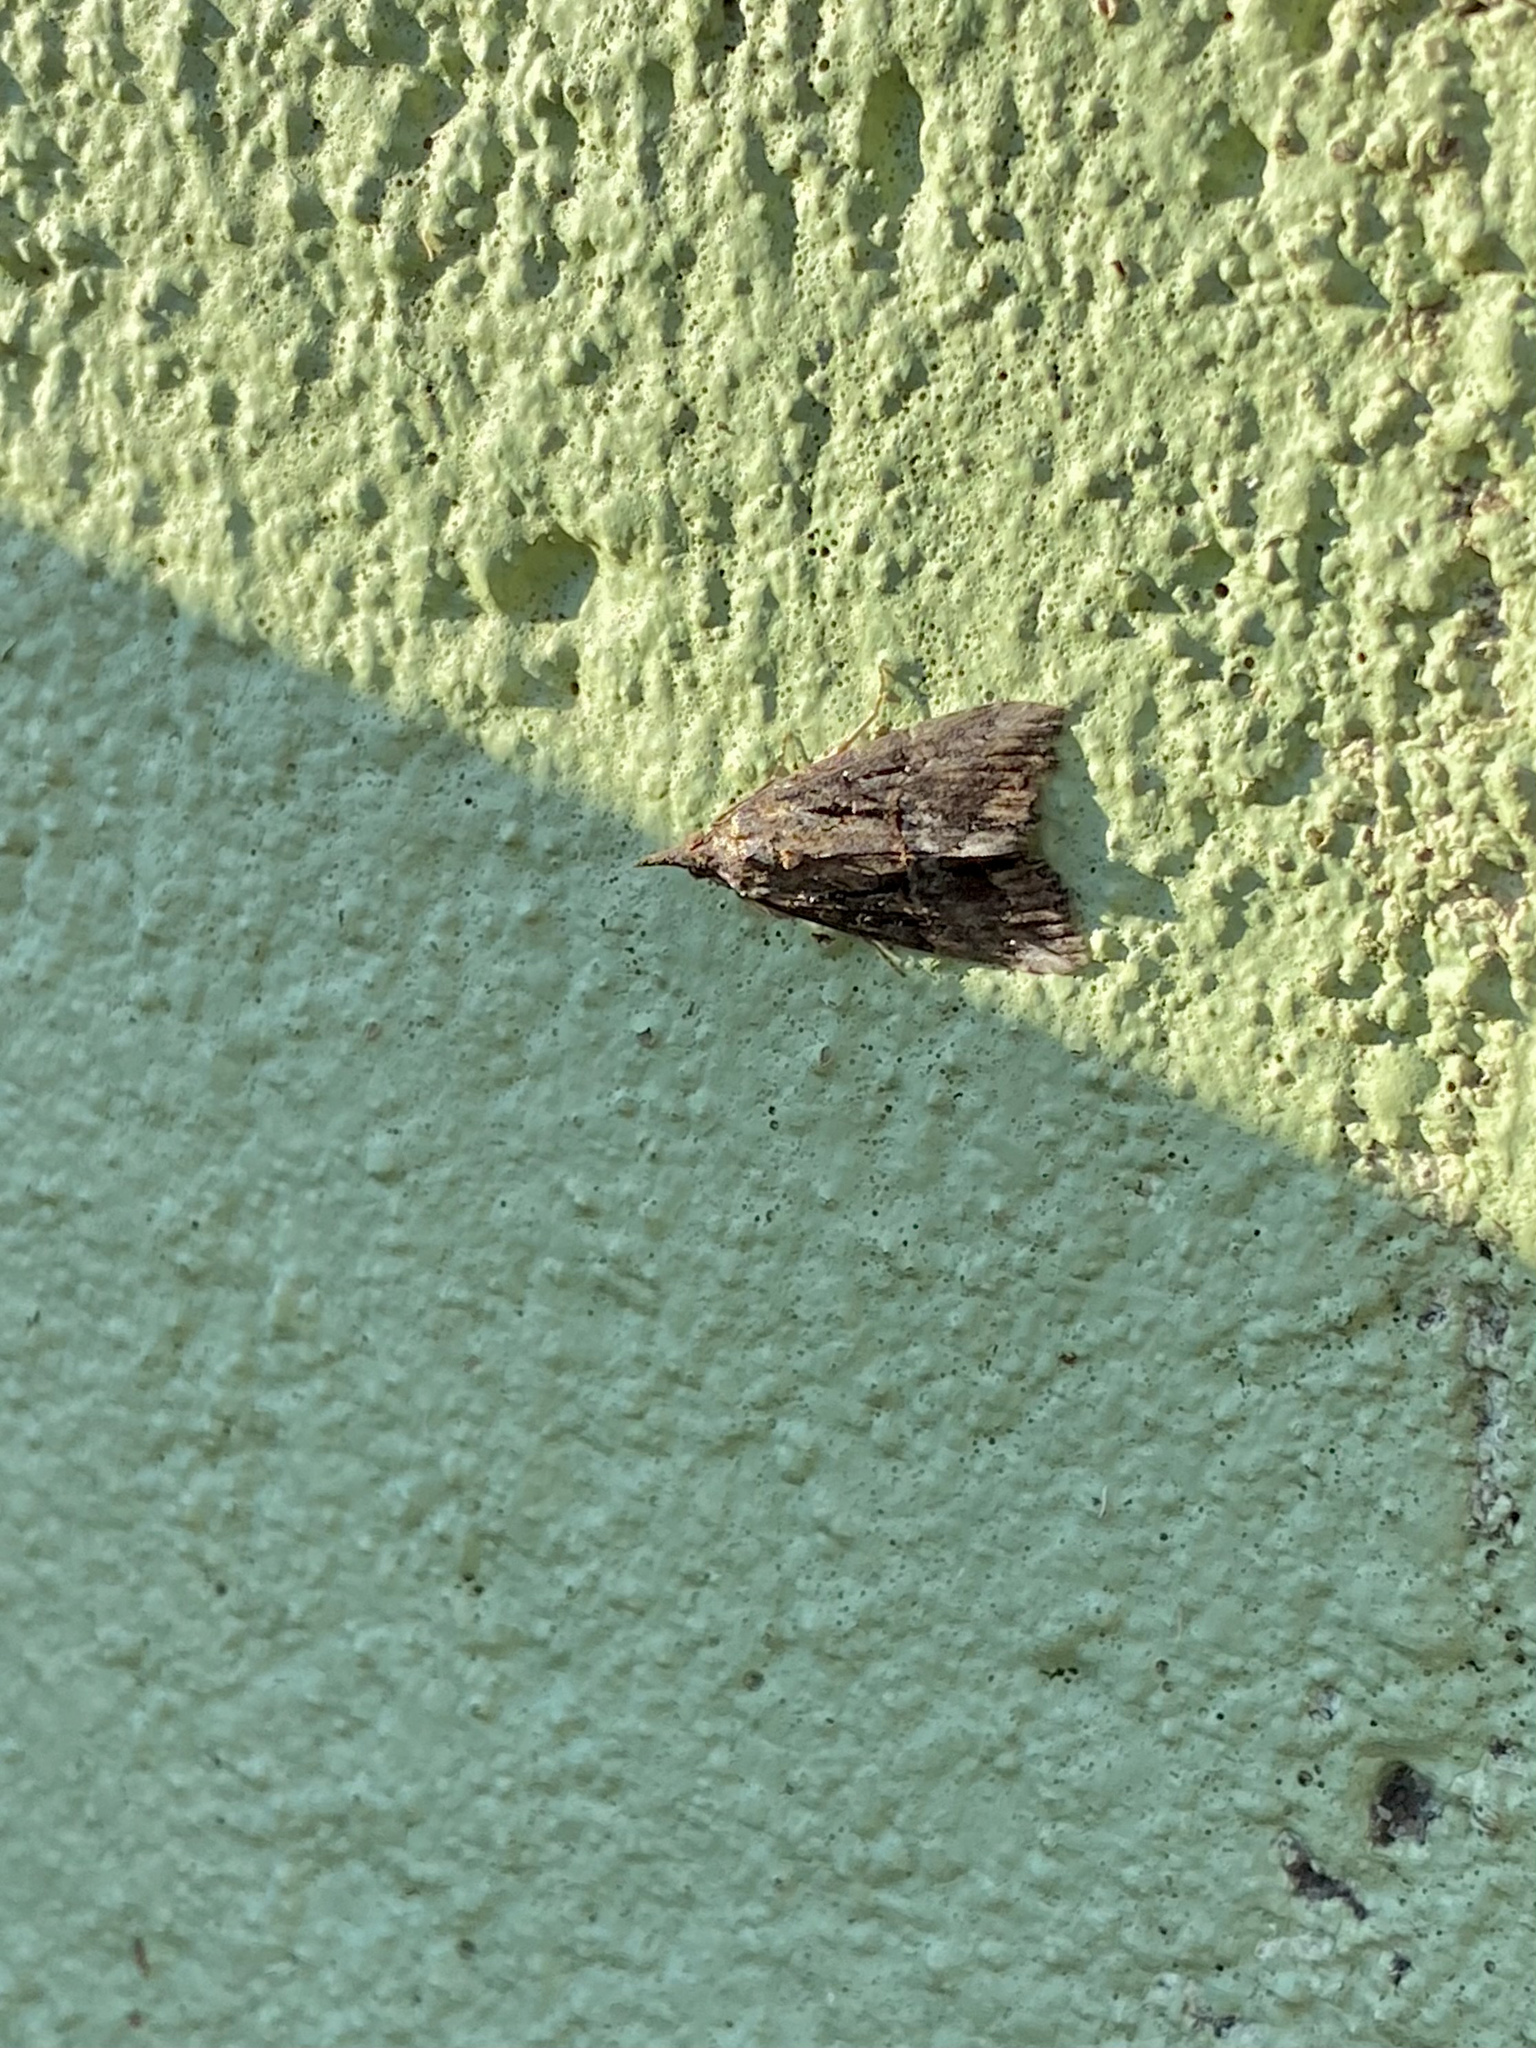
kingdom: Animalia
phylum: Arthropoda
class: Insecta
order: Lepidoptera
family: Erebidae
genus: Hypena
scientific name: Hypena scabra
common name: Green cloverworm
